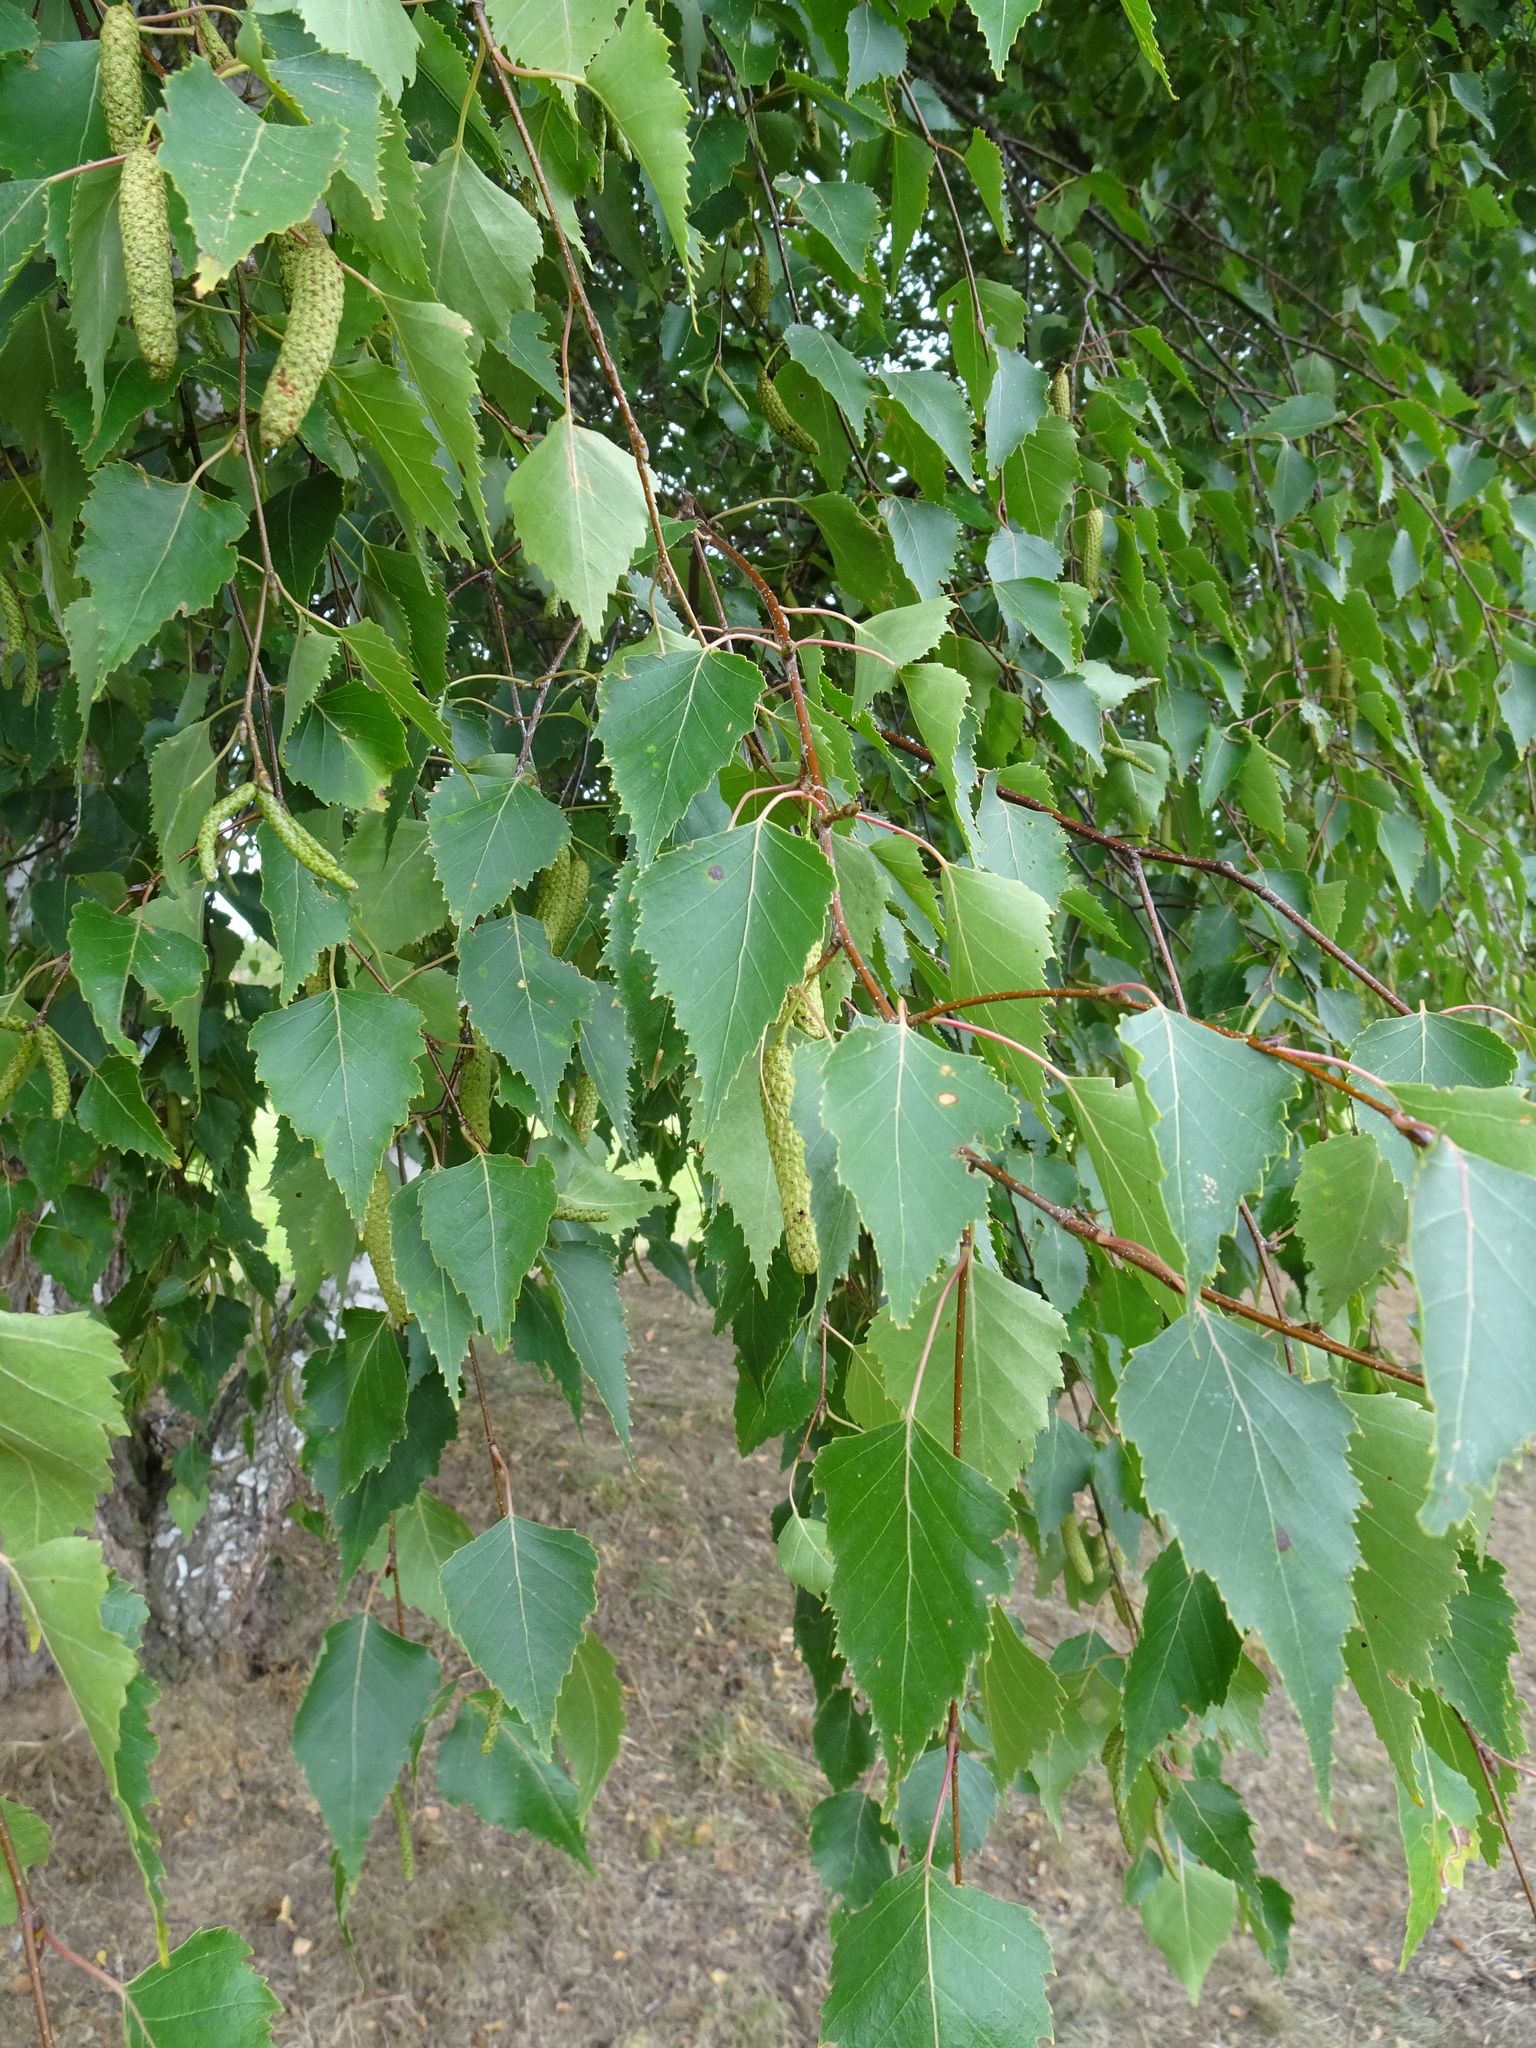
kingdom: Plantae
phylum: Tracheophyta
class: Magnoliopsida
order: Fagales
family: Betulaceae
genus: Betula
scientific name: Betula pendula
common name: Silver birch
